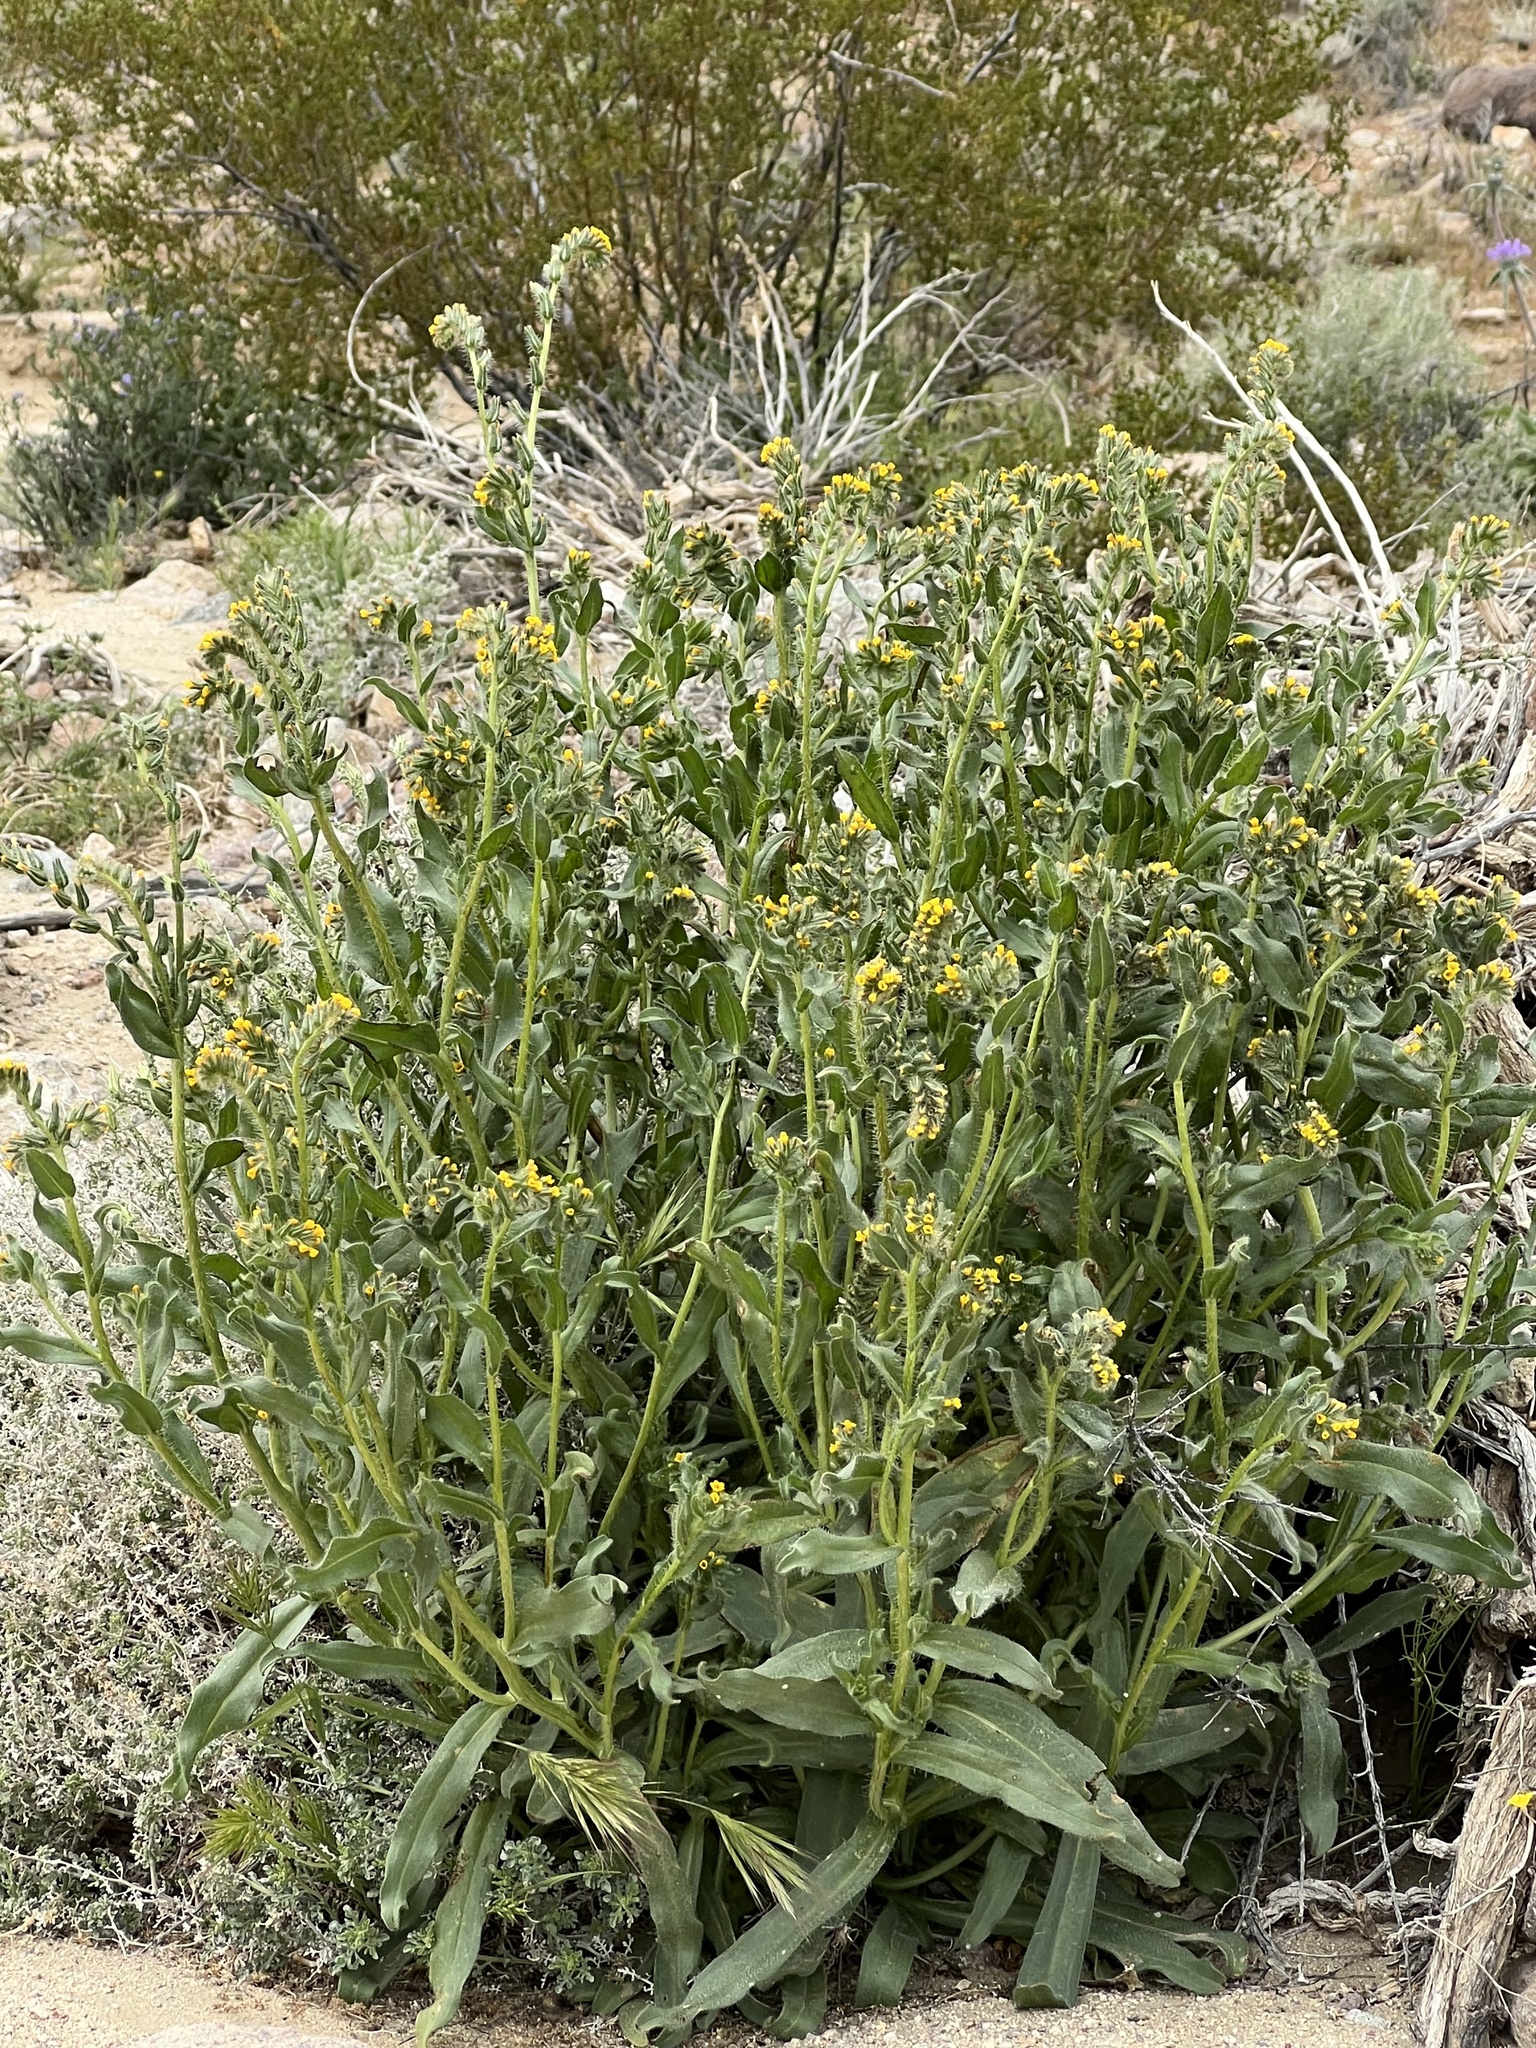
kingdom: Plantae
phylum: Tracheophyta
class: Magnoliopsida
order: Boraginales
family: Boraginaceae
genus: Amsinckia
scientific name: Amsinckia tessellata
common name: Tessellate fiddleneck
